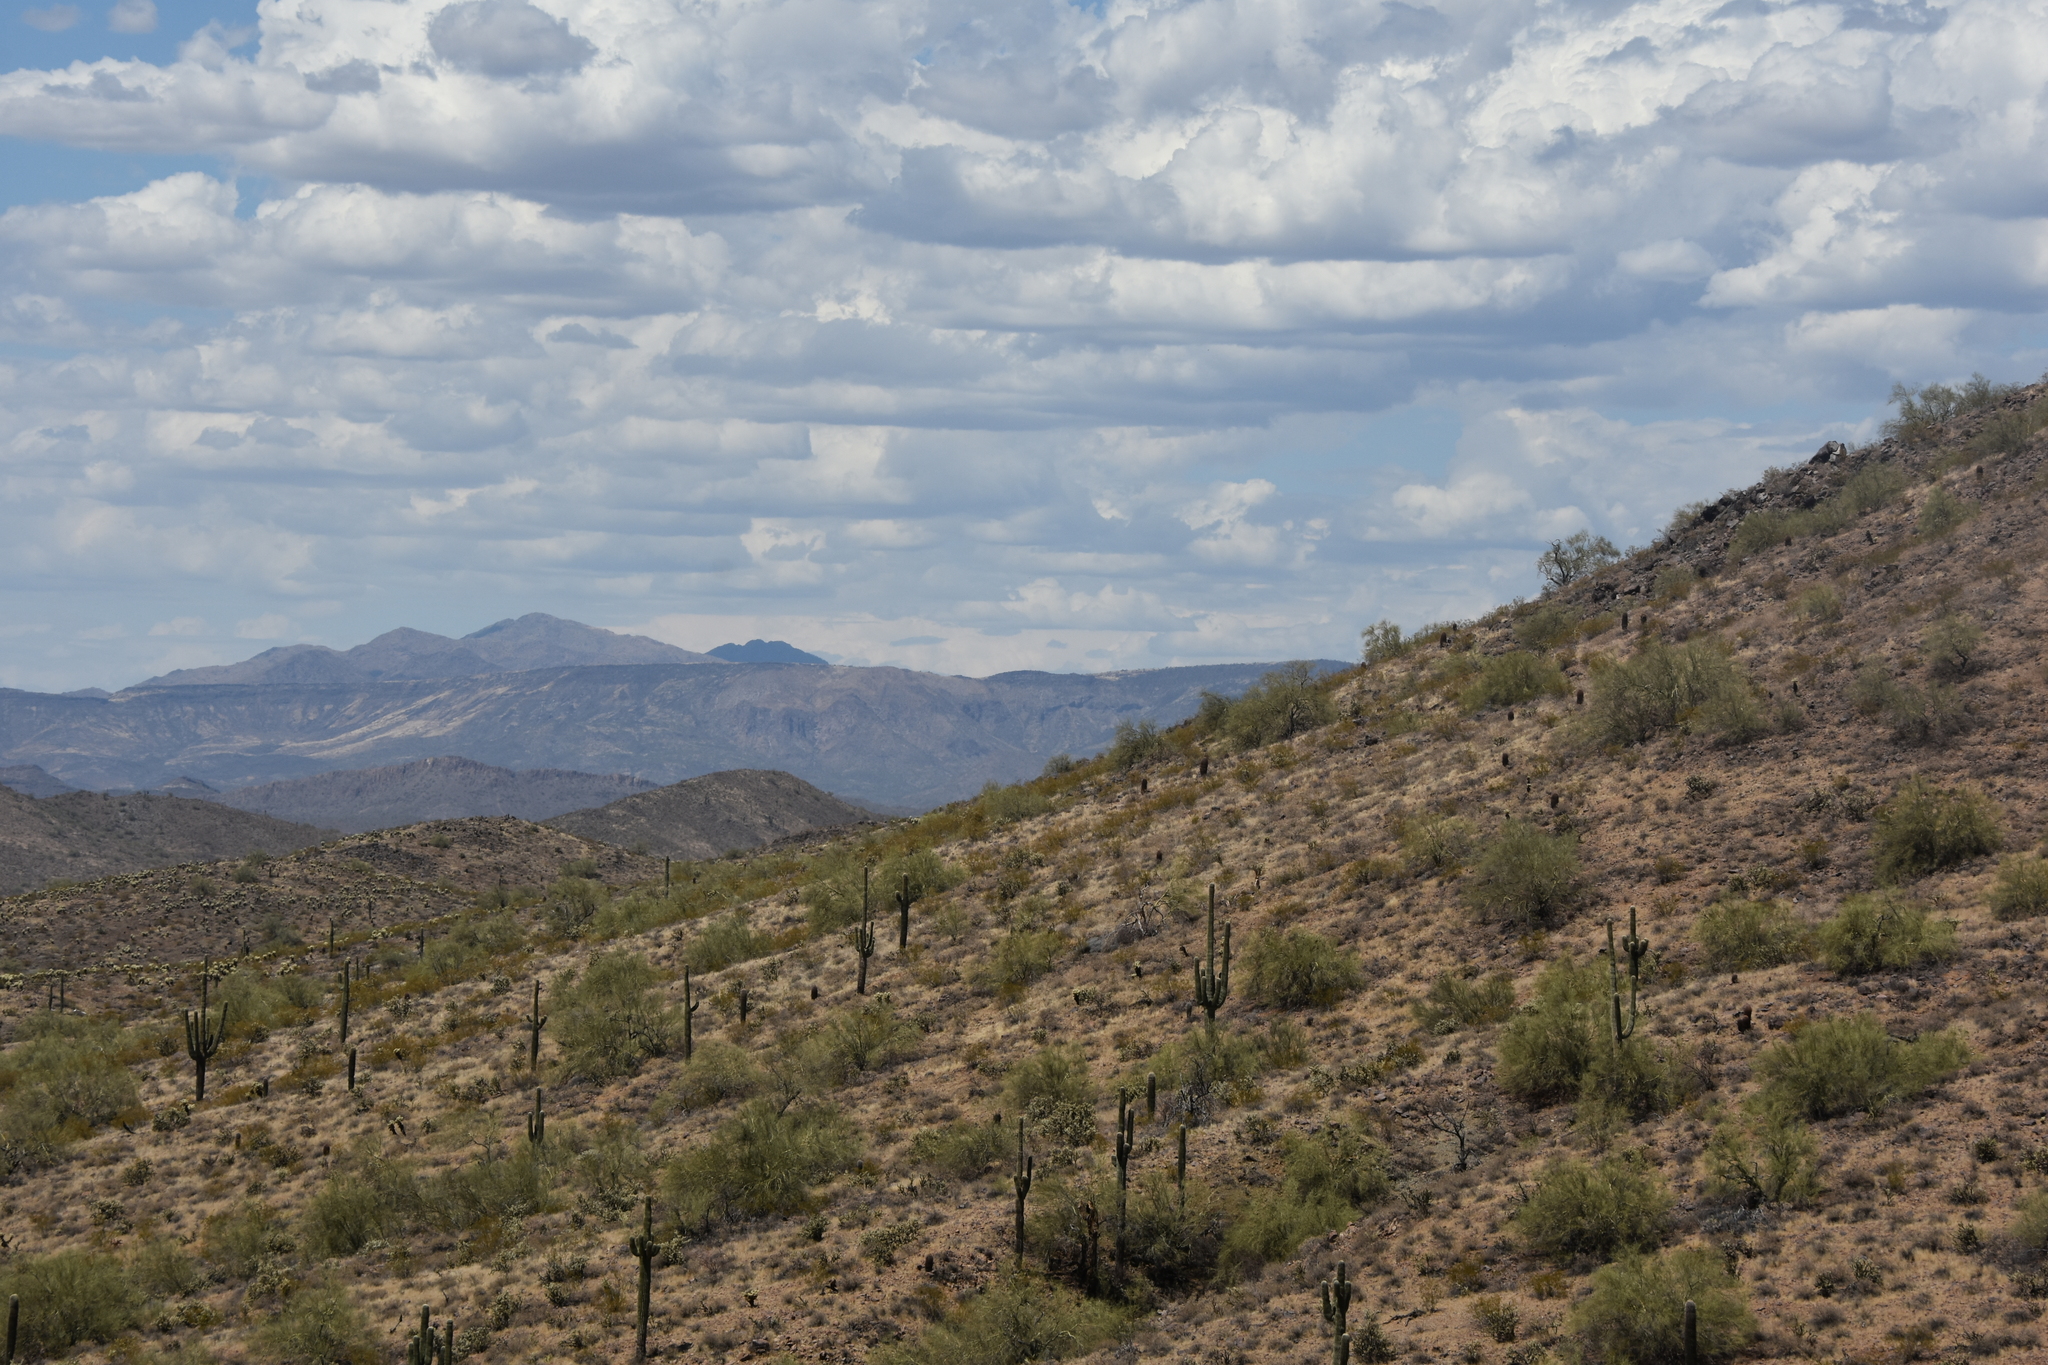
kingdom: Plantae
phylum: Tracheophyta
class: Magnoliopsida
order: Caryophyllales
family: Cactaceae
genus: Carnegiea
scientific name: Carnegiea gigantea
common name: Saguaro
